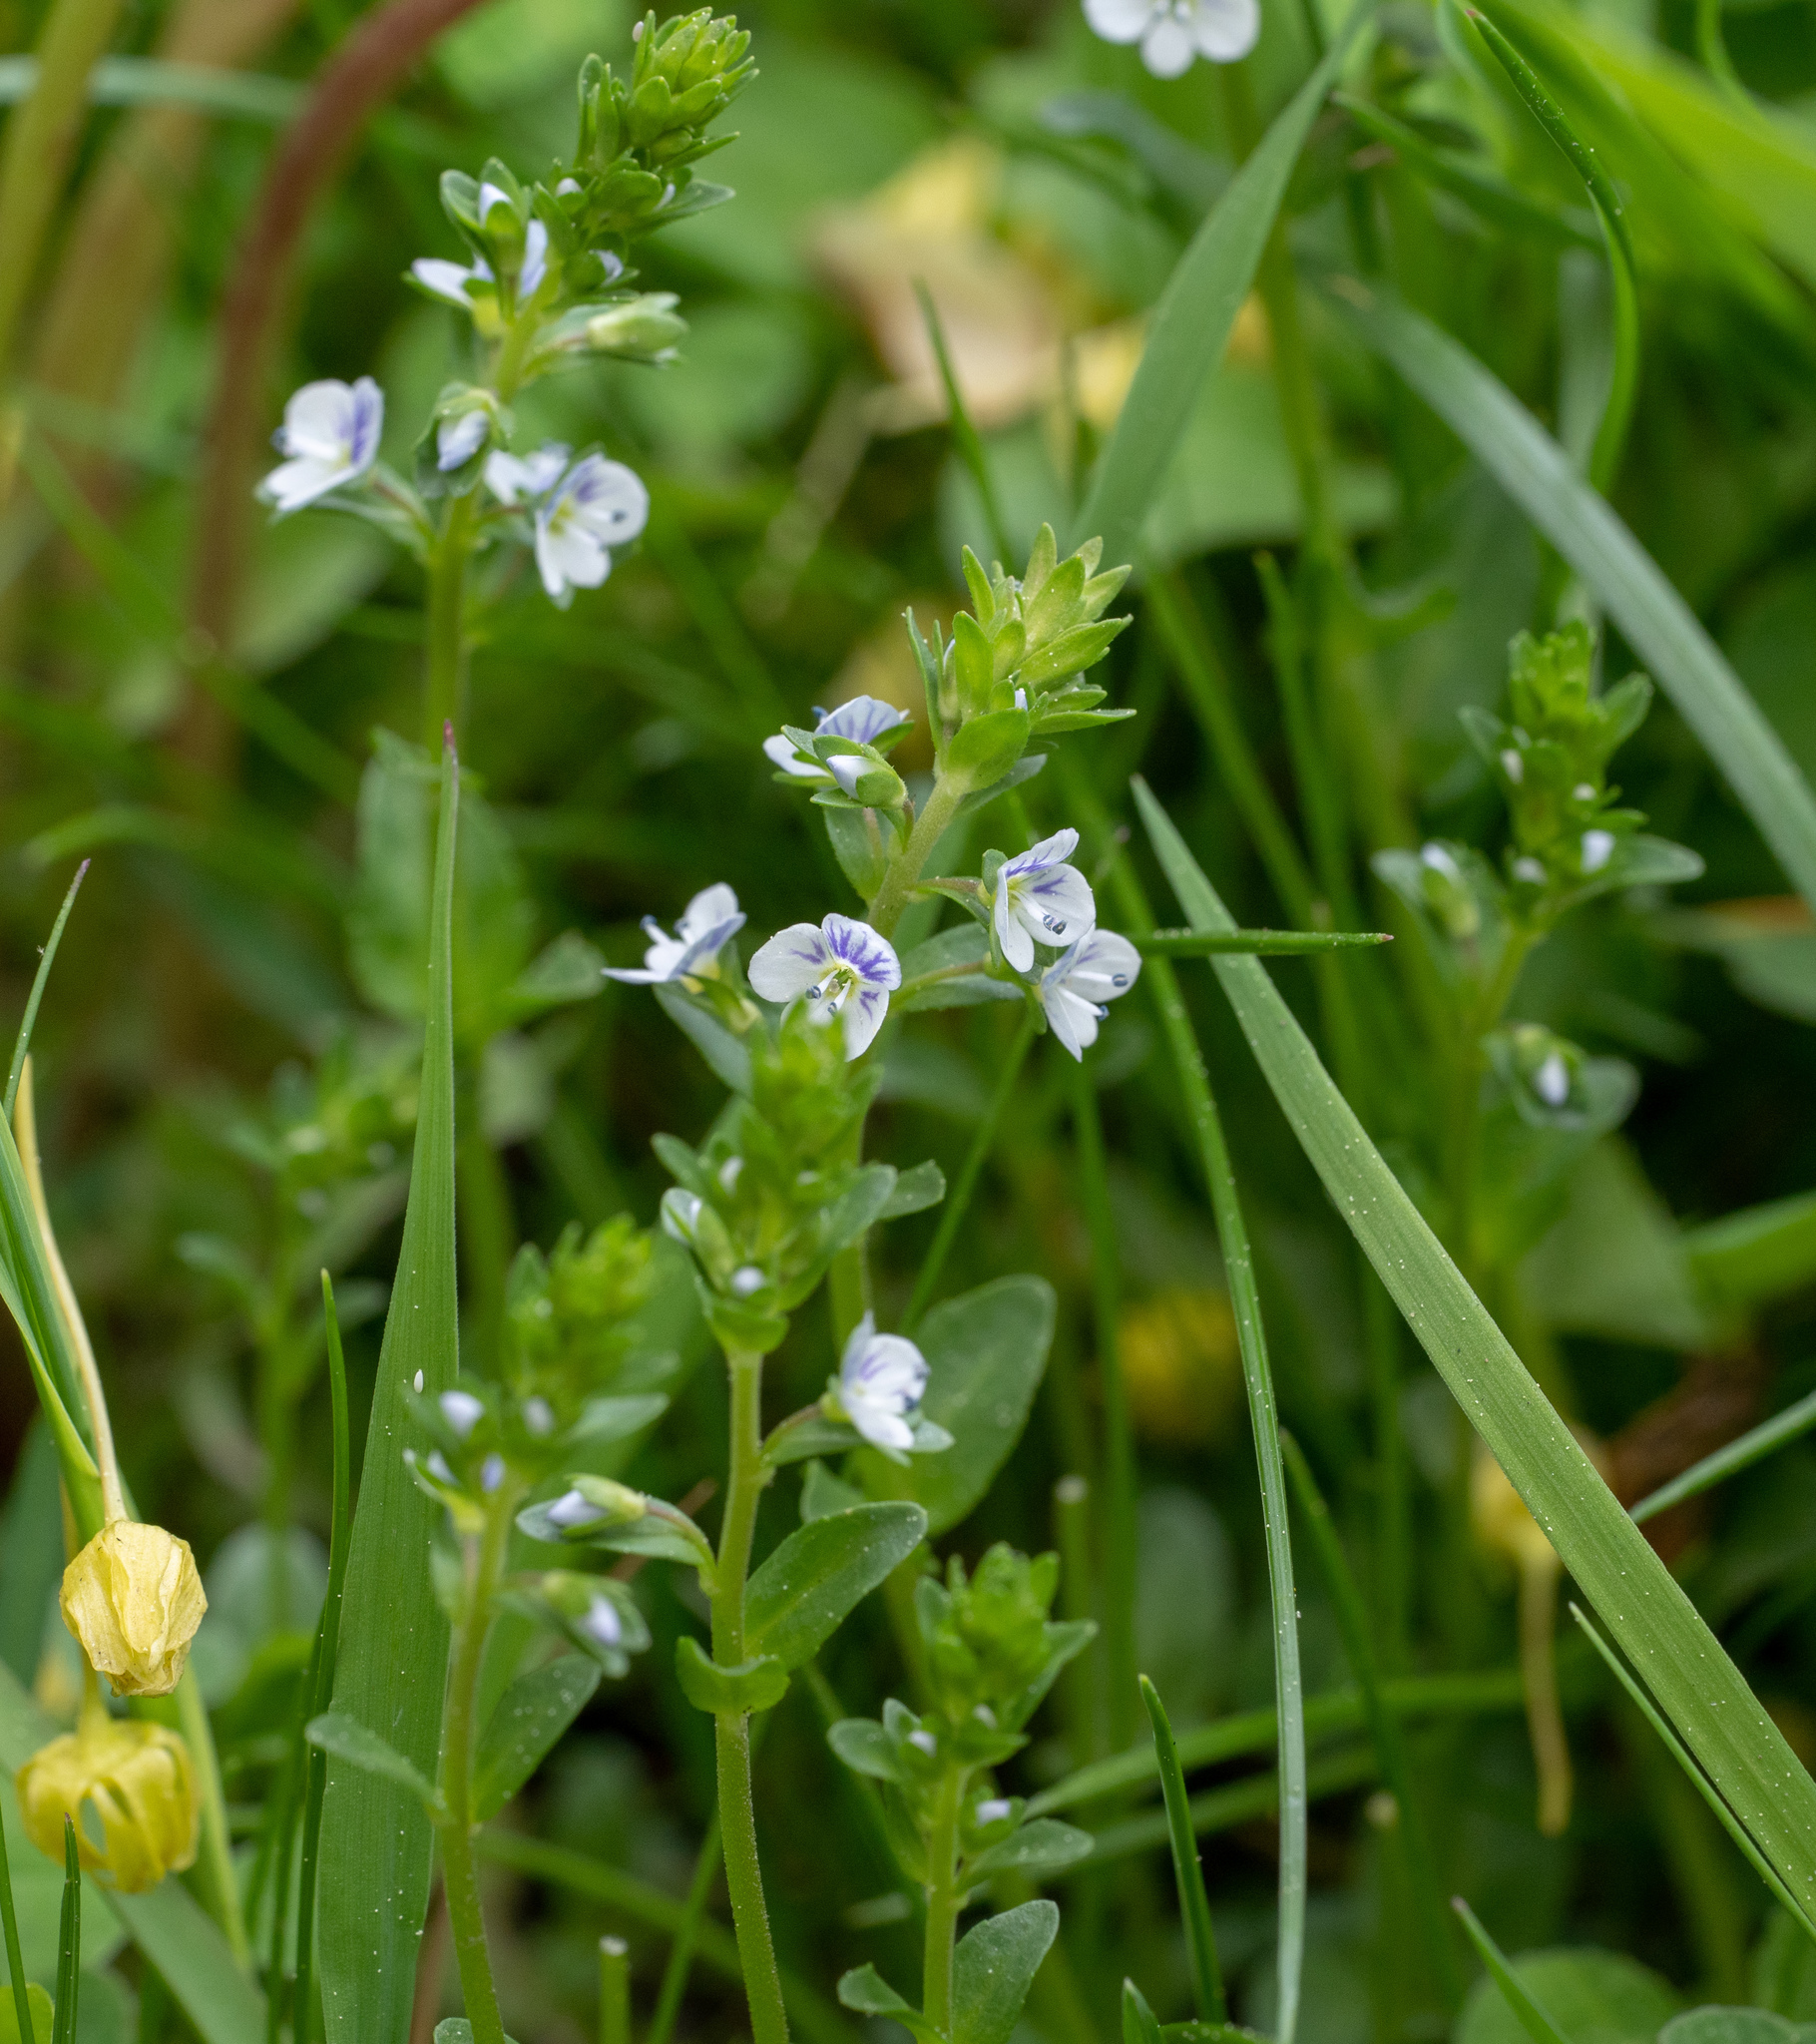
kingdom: Plantae
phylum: Tracheophyta
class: Magnoliopsida
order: Lamiales
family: Plantaginaceae
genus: Veronica
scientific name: Veronica serpyllifolia
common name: Thyme-leaved speedwell
